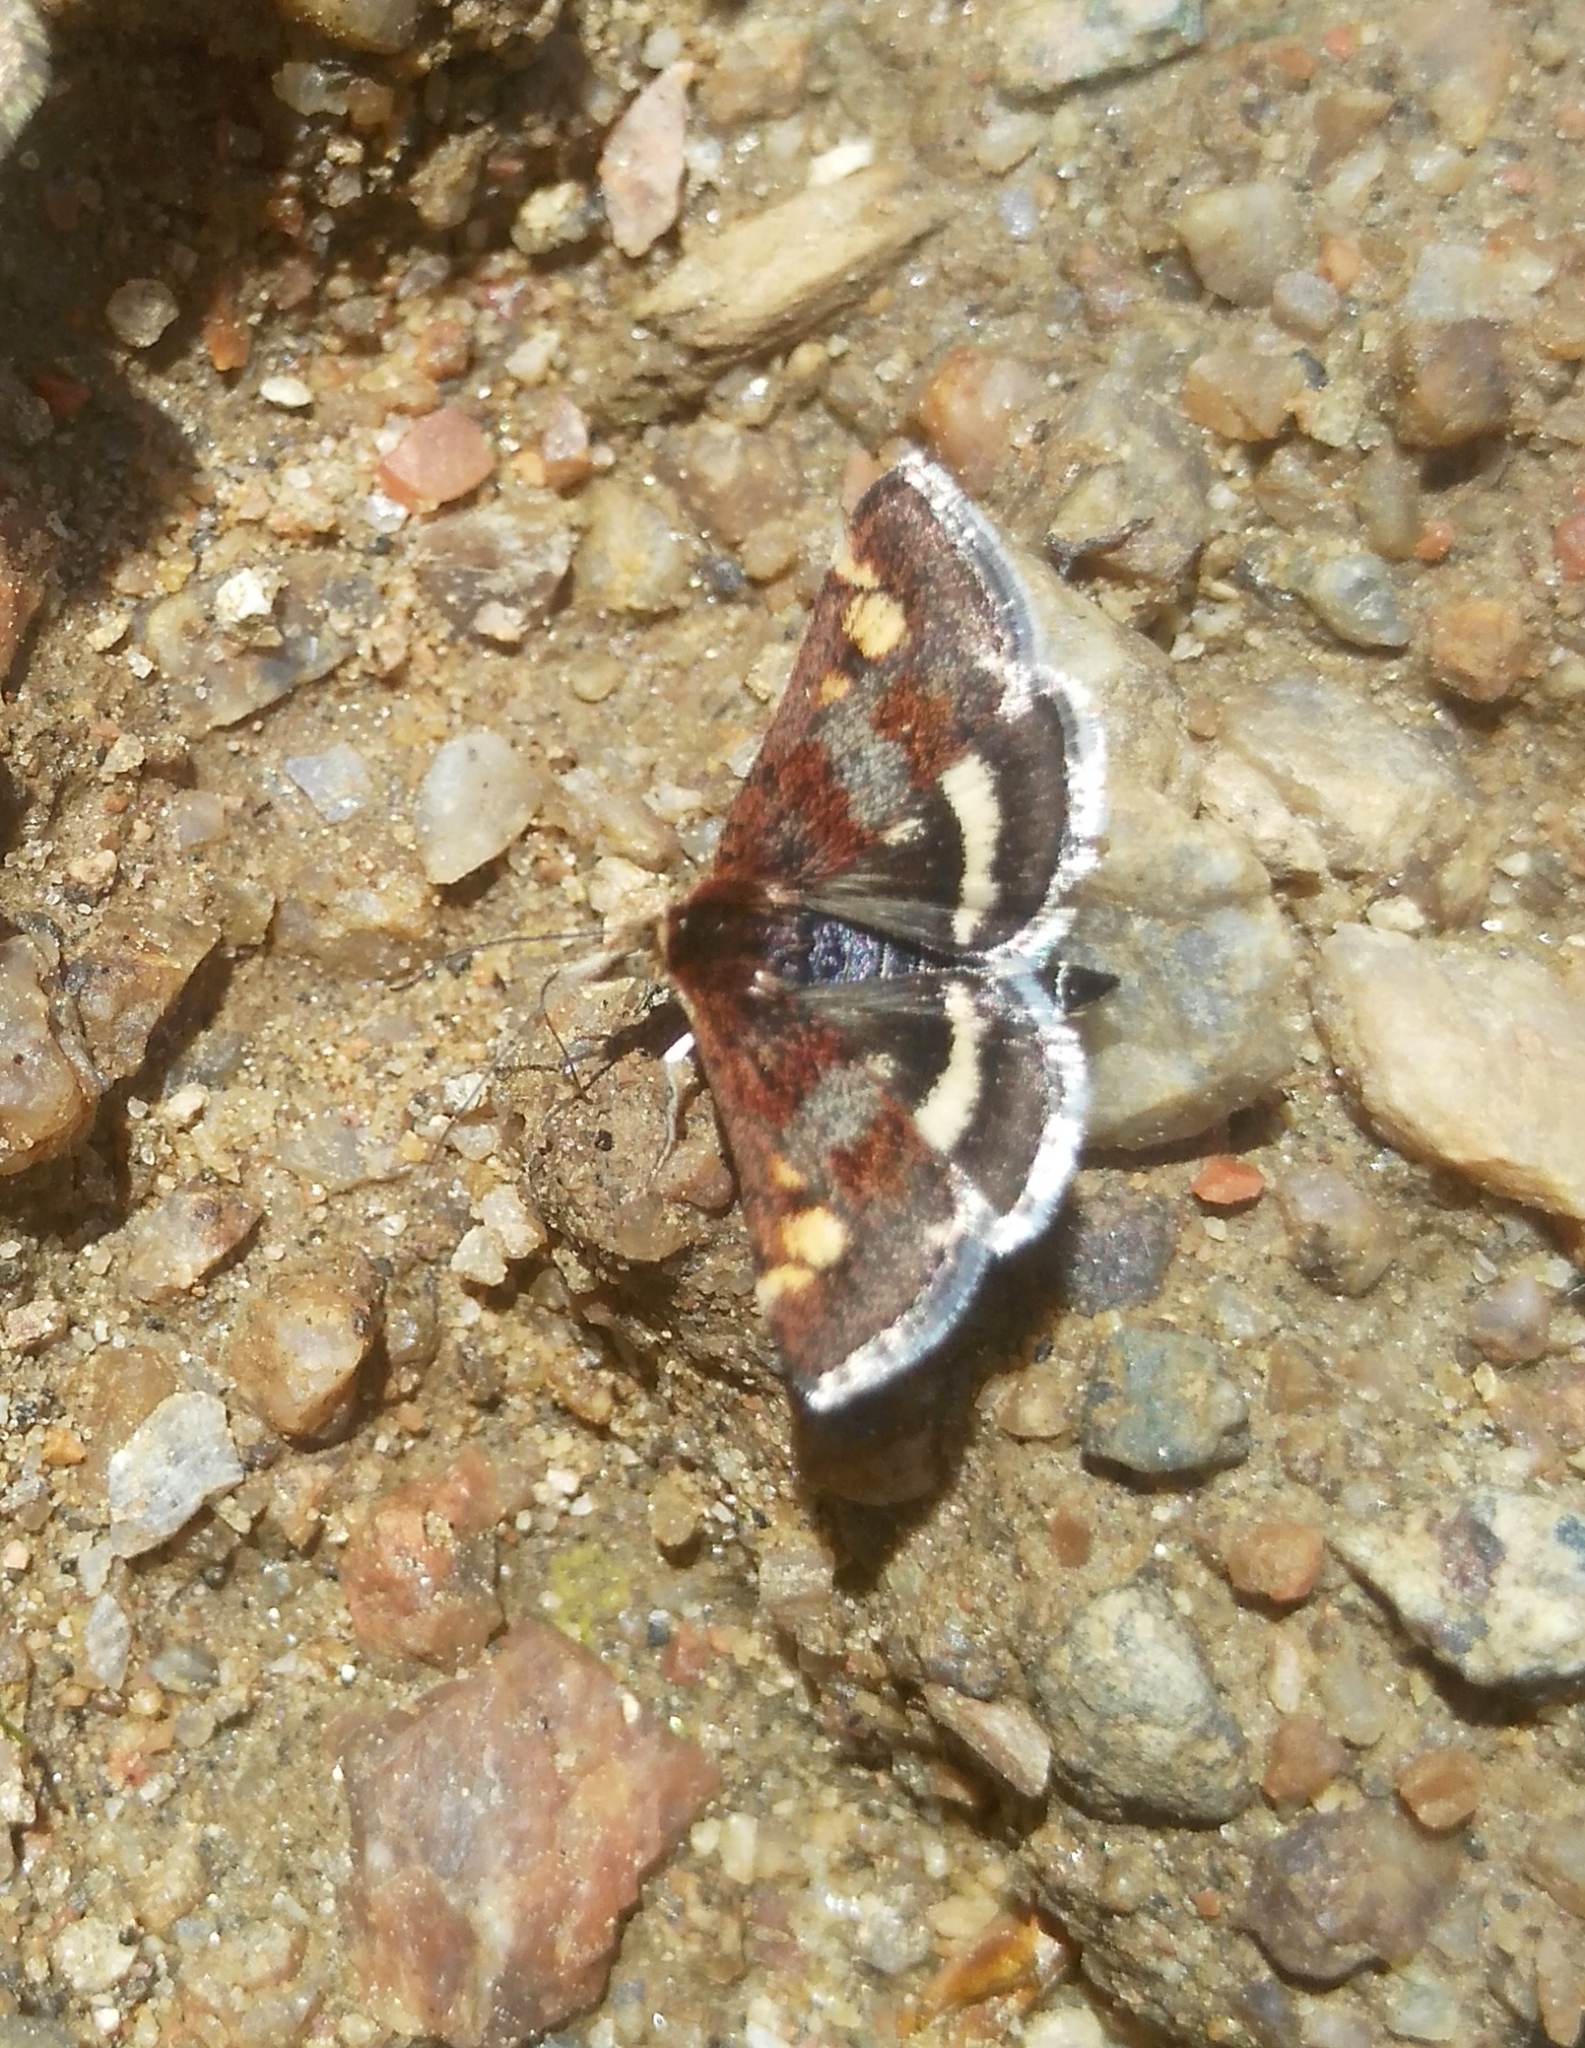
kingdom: Animalia
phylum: Arthropoda
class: Insecta
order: Lepidoptera
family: Crambidae
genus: Pyrausta
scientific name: Pyrausta porphyralis
